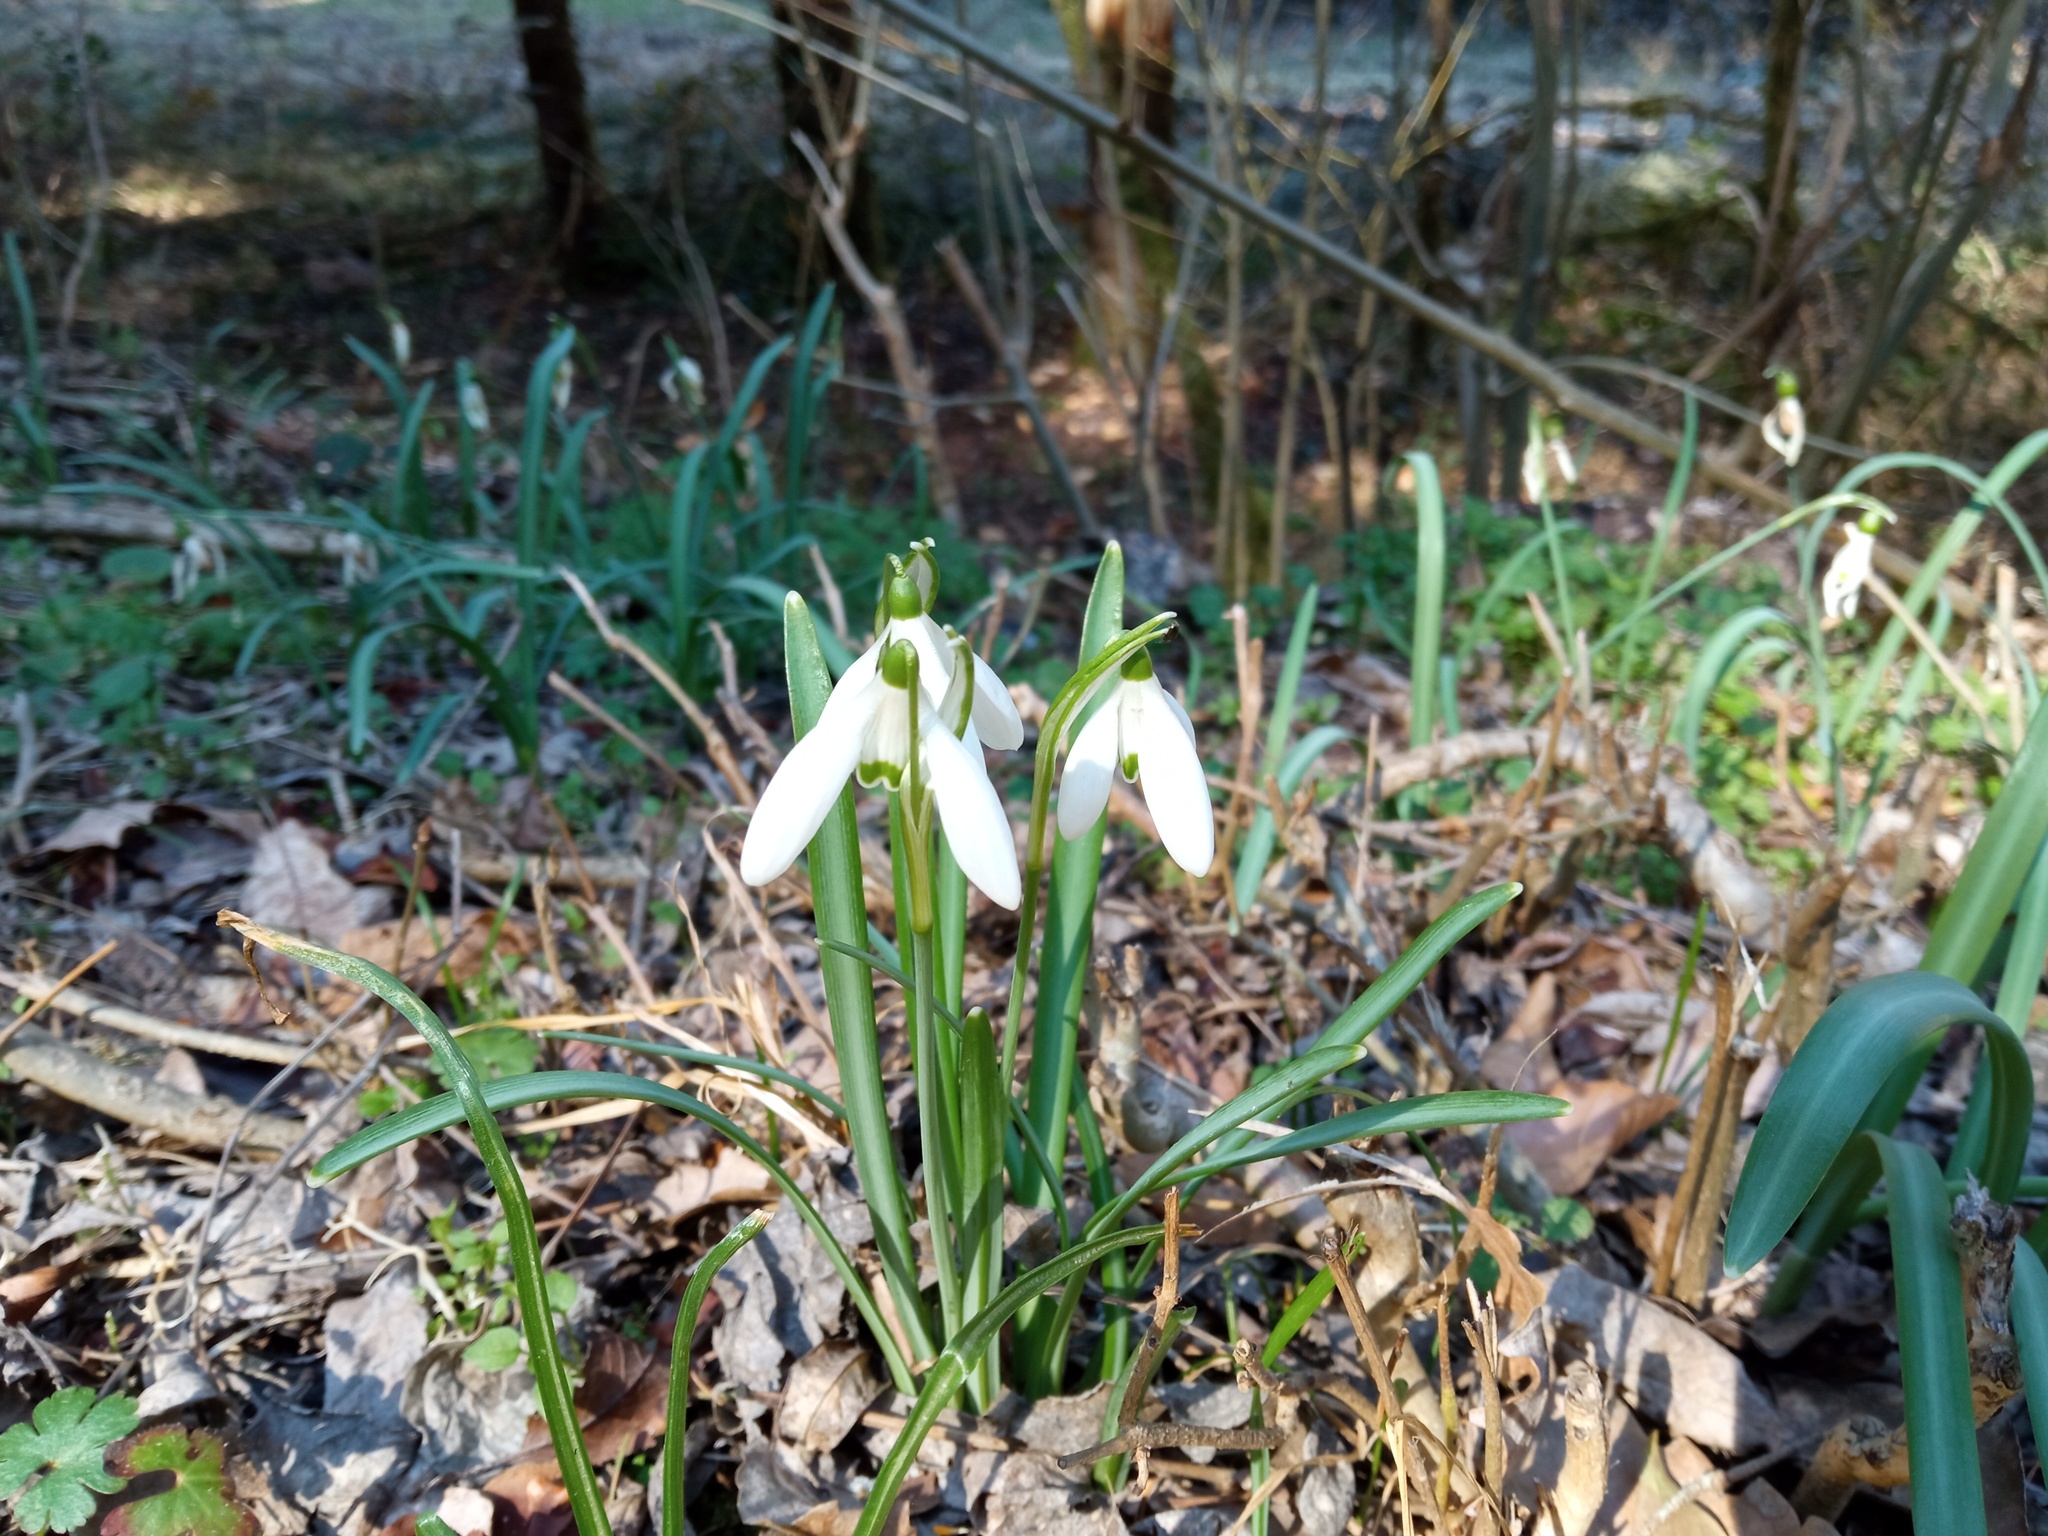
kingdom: Plantae
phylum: Tracheophyta
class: Liliopsida
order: Asparagales
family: Amaryllidaceae
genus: Galanthus
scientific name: Galanthus nivalis
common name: Snowdrop
